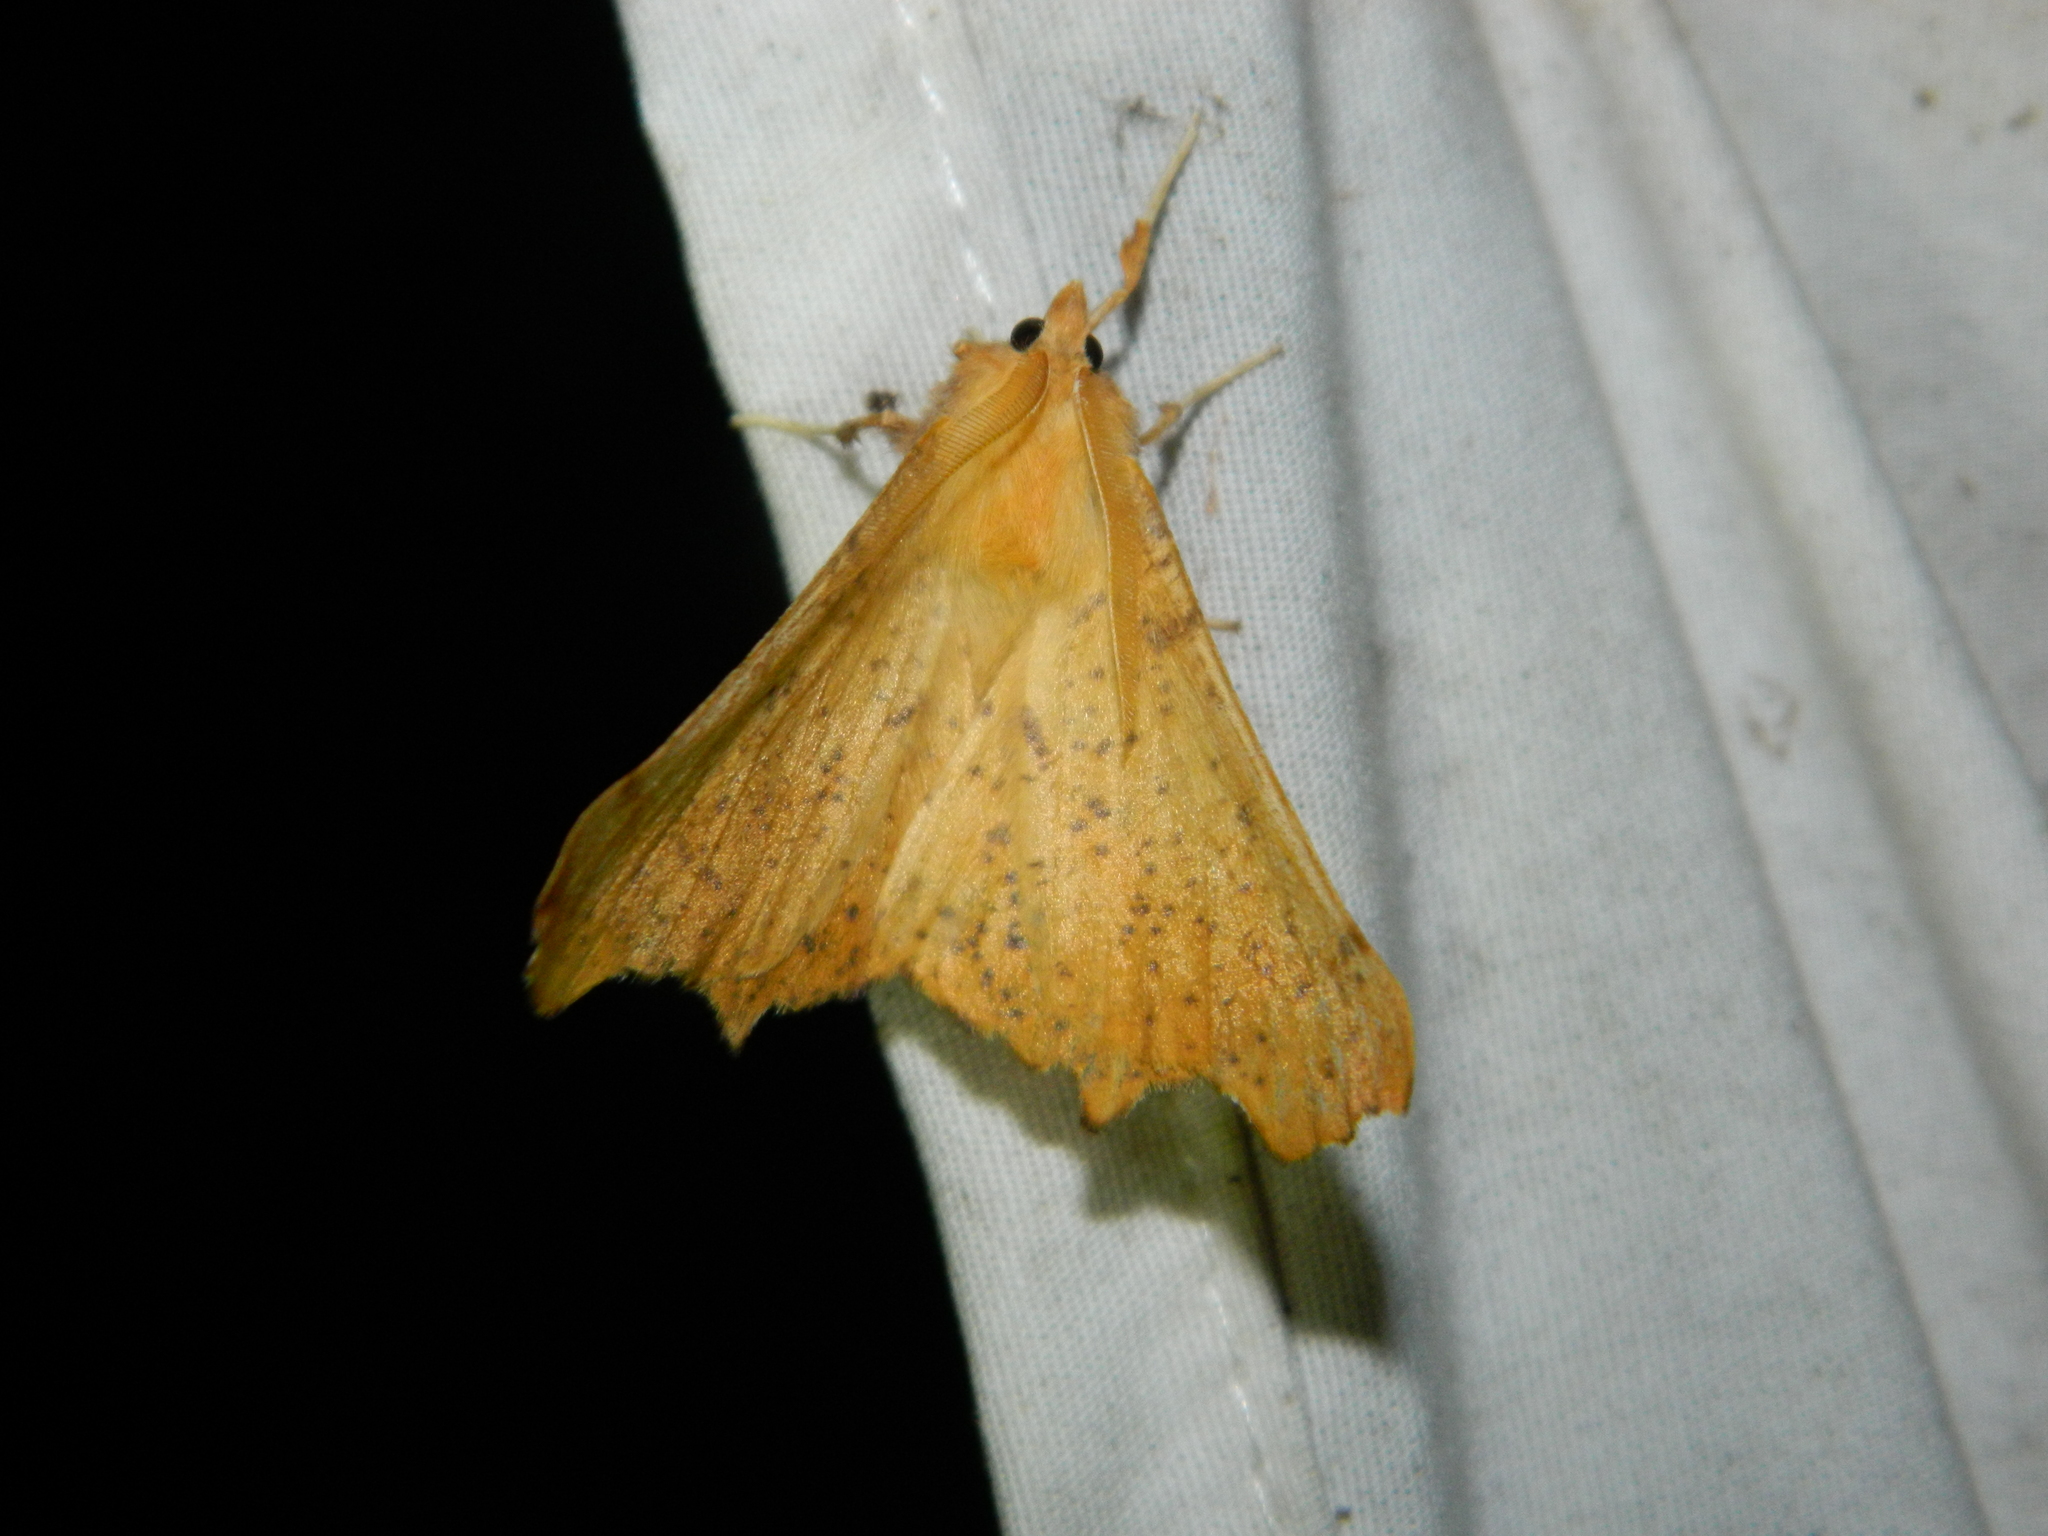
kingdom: Animalia
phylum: Arthropoda
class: Insecta
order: Lepidoptera
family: Geometridae
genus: Ennomos
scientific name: Ennomos magnaria
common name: Maple spanworm
